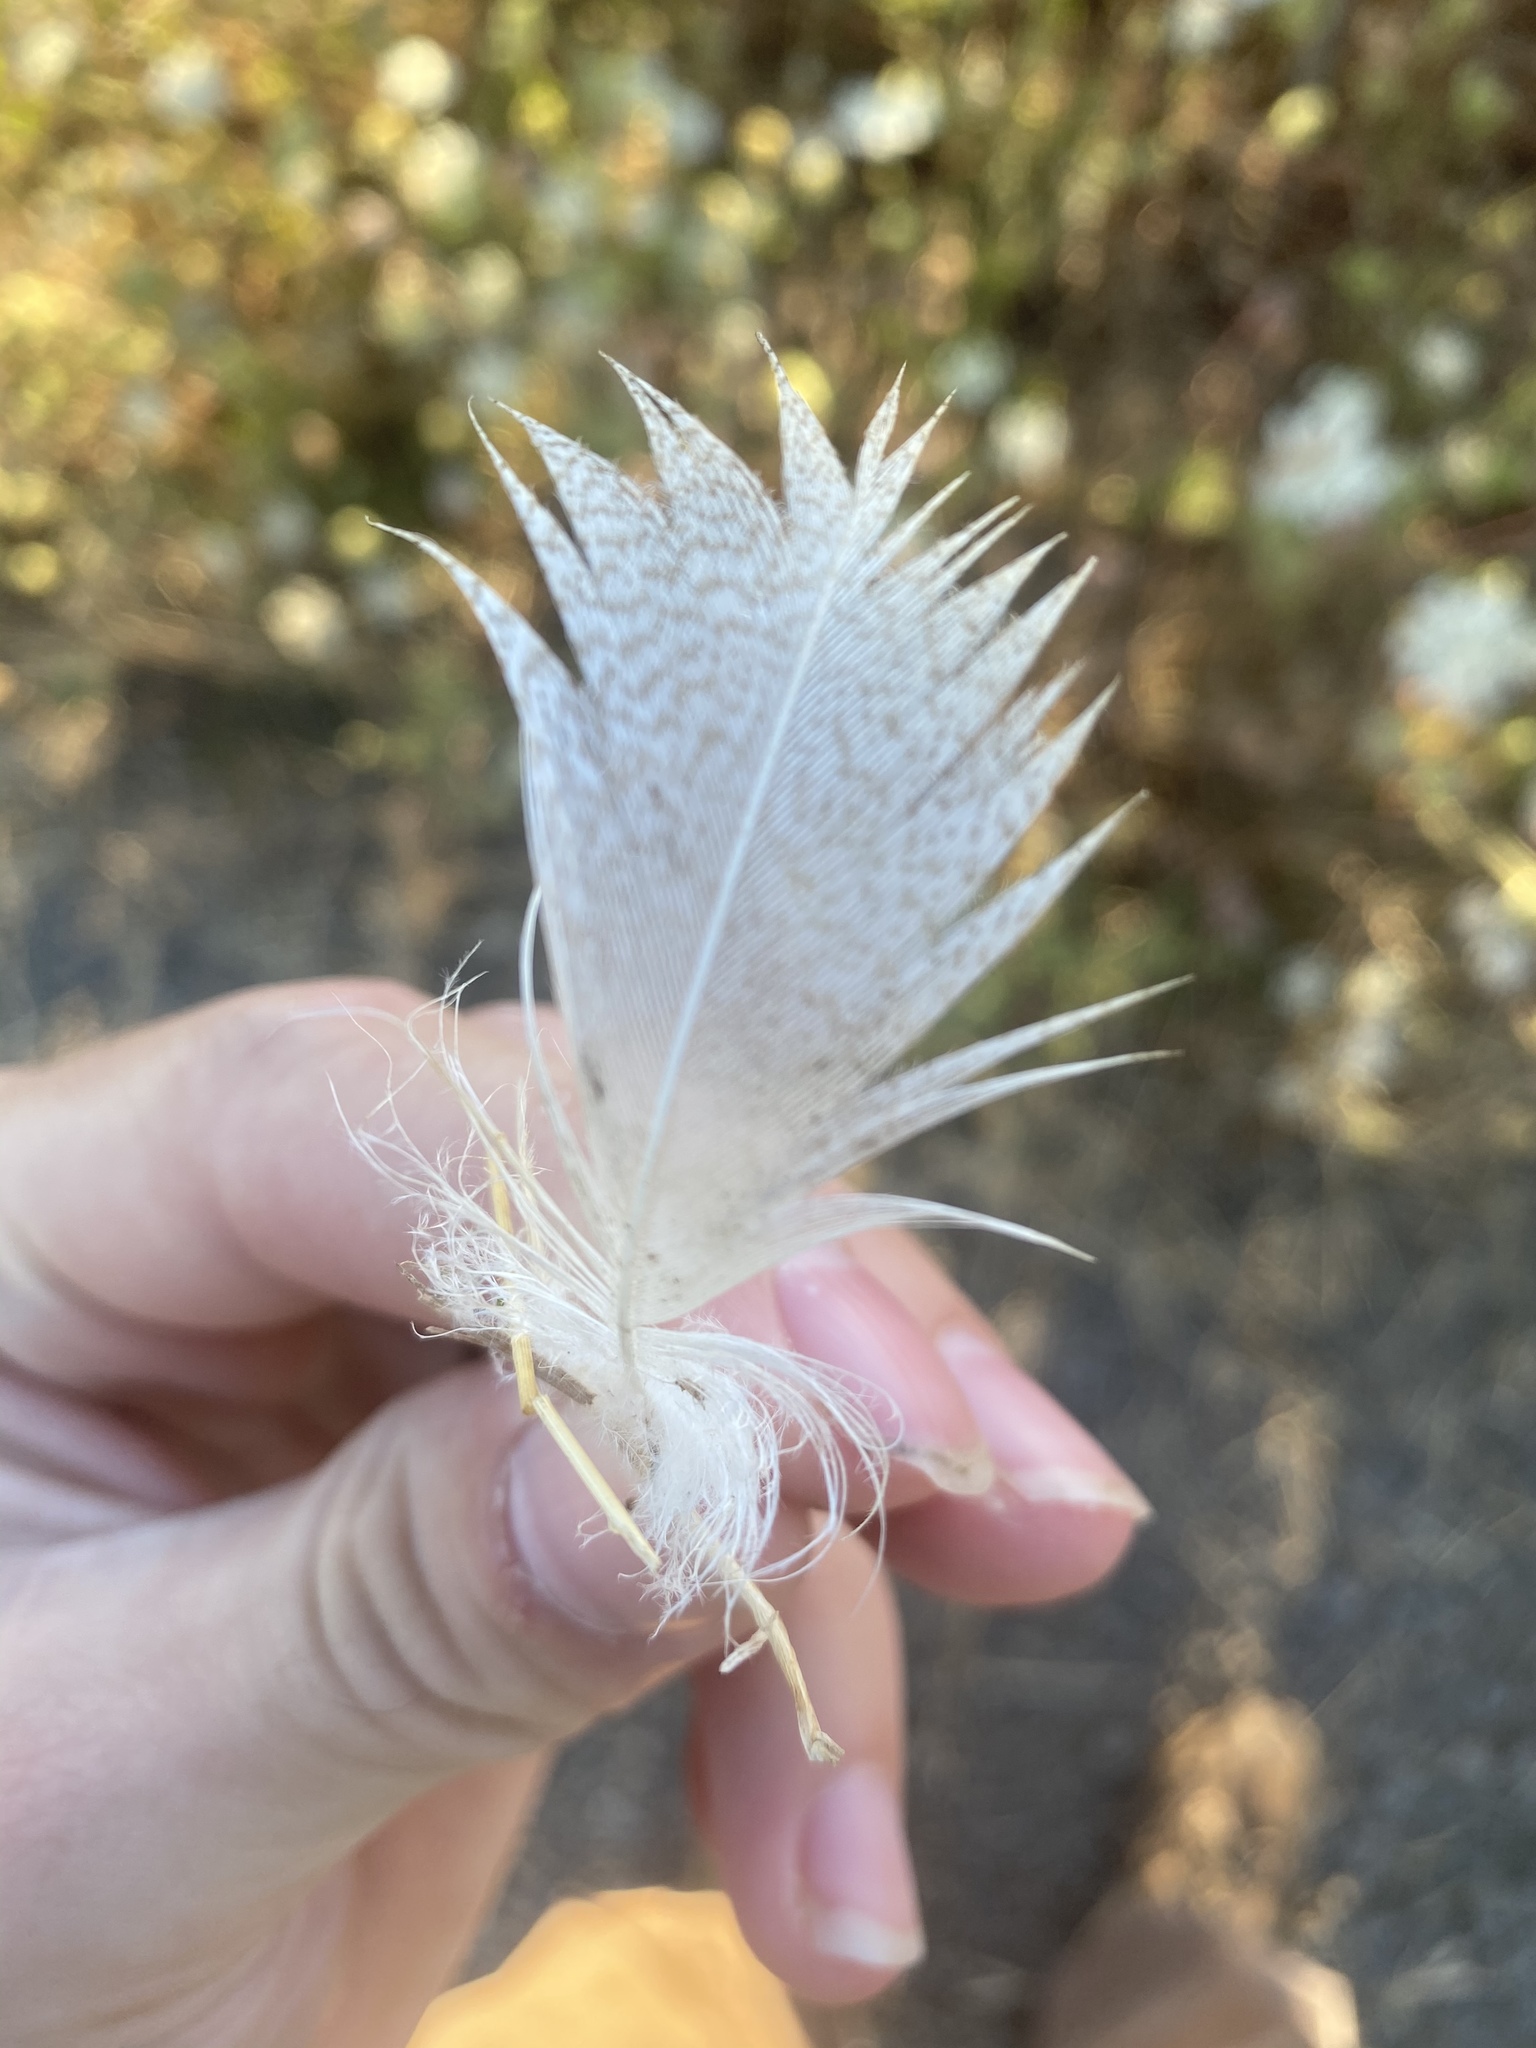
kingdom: Animalia
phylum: Chordata
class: Aves
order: Anseriformes
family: Anatidae
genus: Anas
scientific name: Anas platyrhynchos
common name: Mallard
